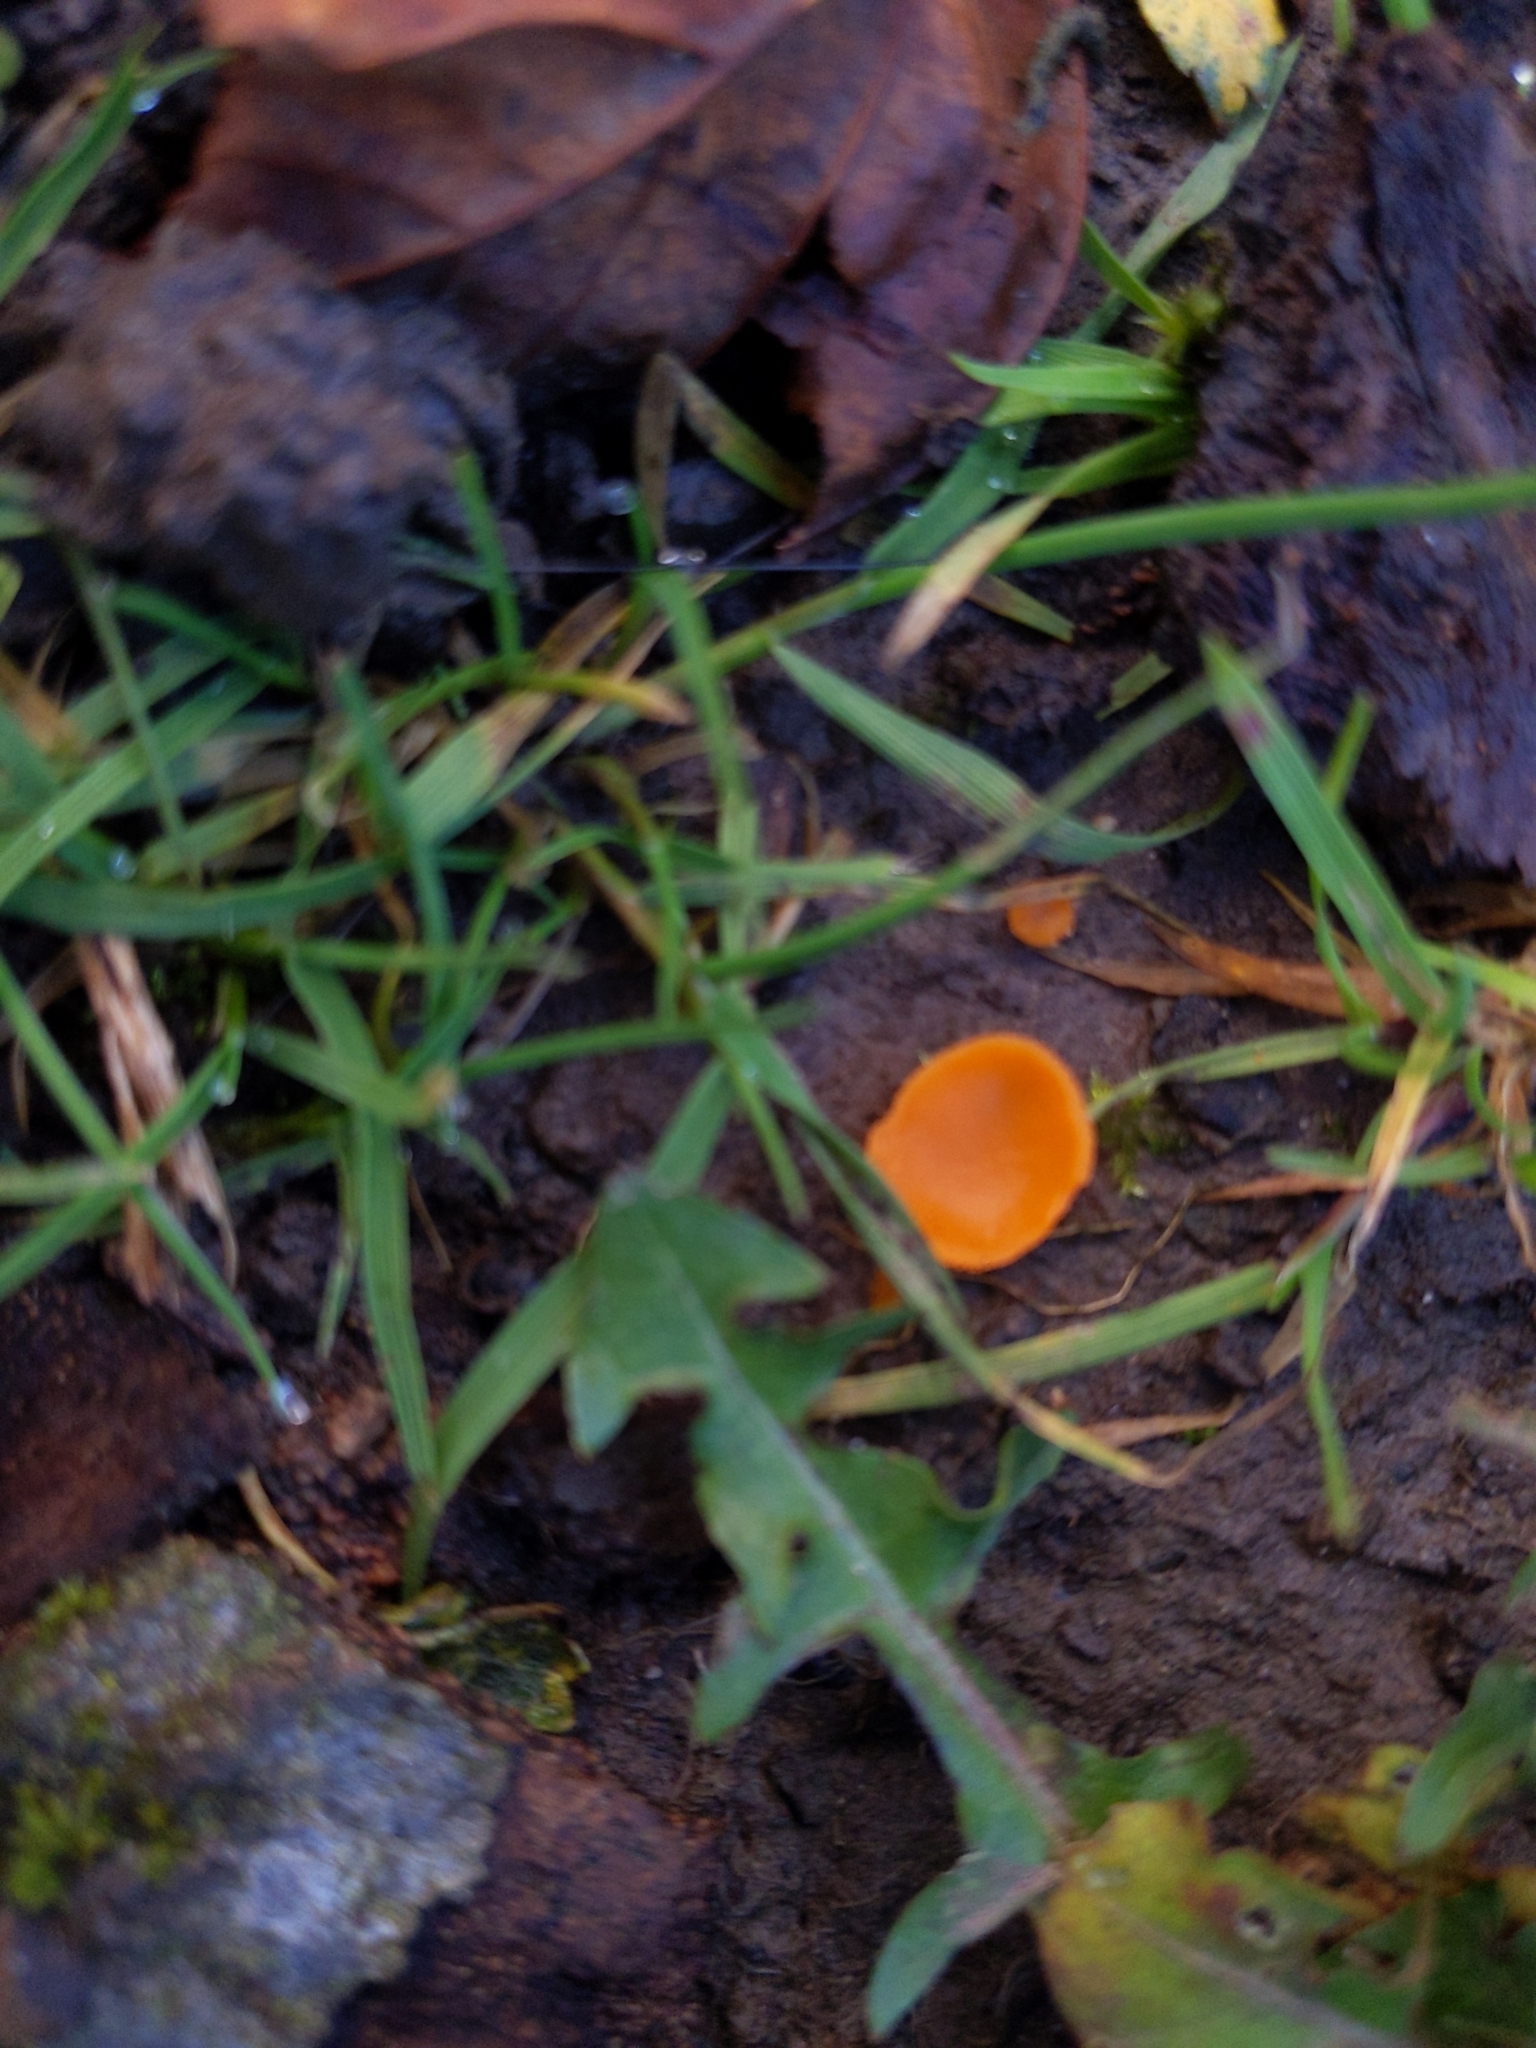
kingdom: Fungi
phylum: Ascomycota
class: Pezizomycetes
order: Pezizales
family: Pyronemataceae
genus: Aleuria
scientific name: Aleuria aurantia
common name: Orange peel fungus
